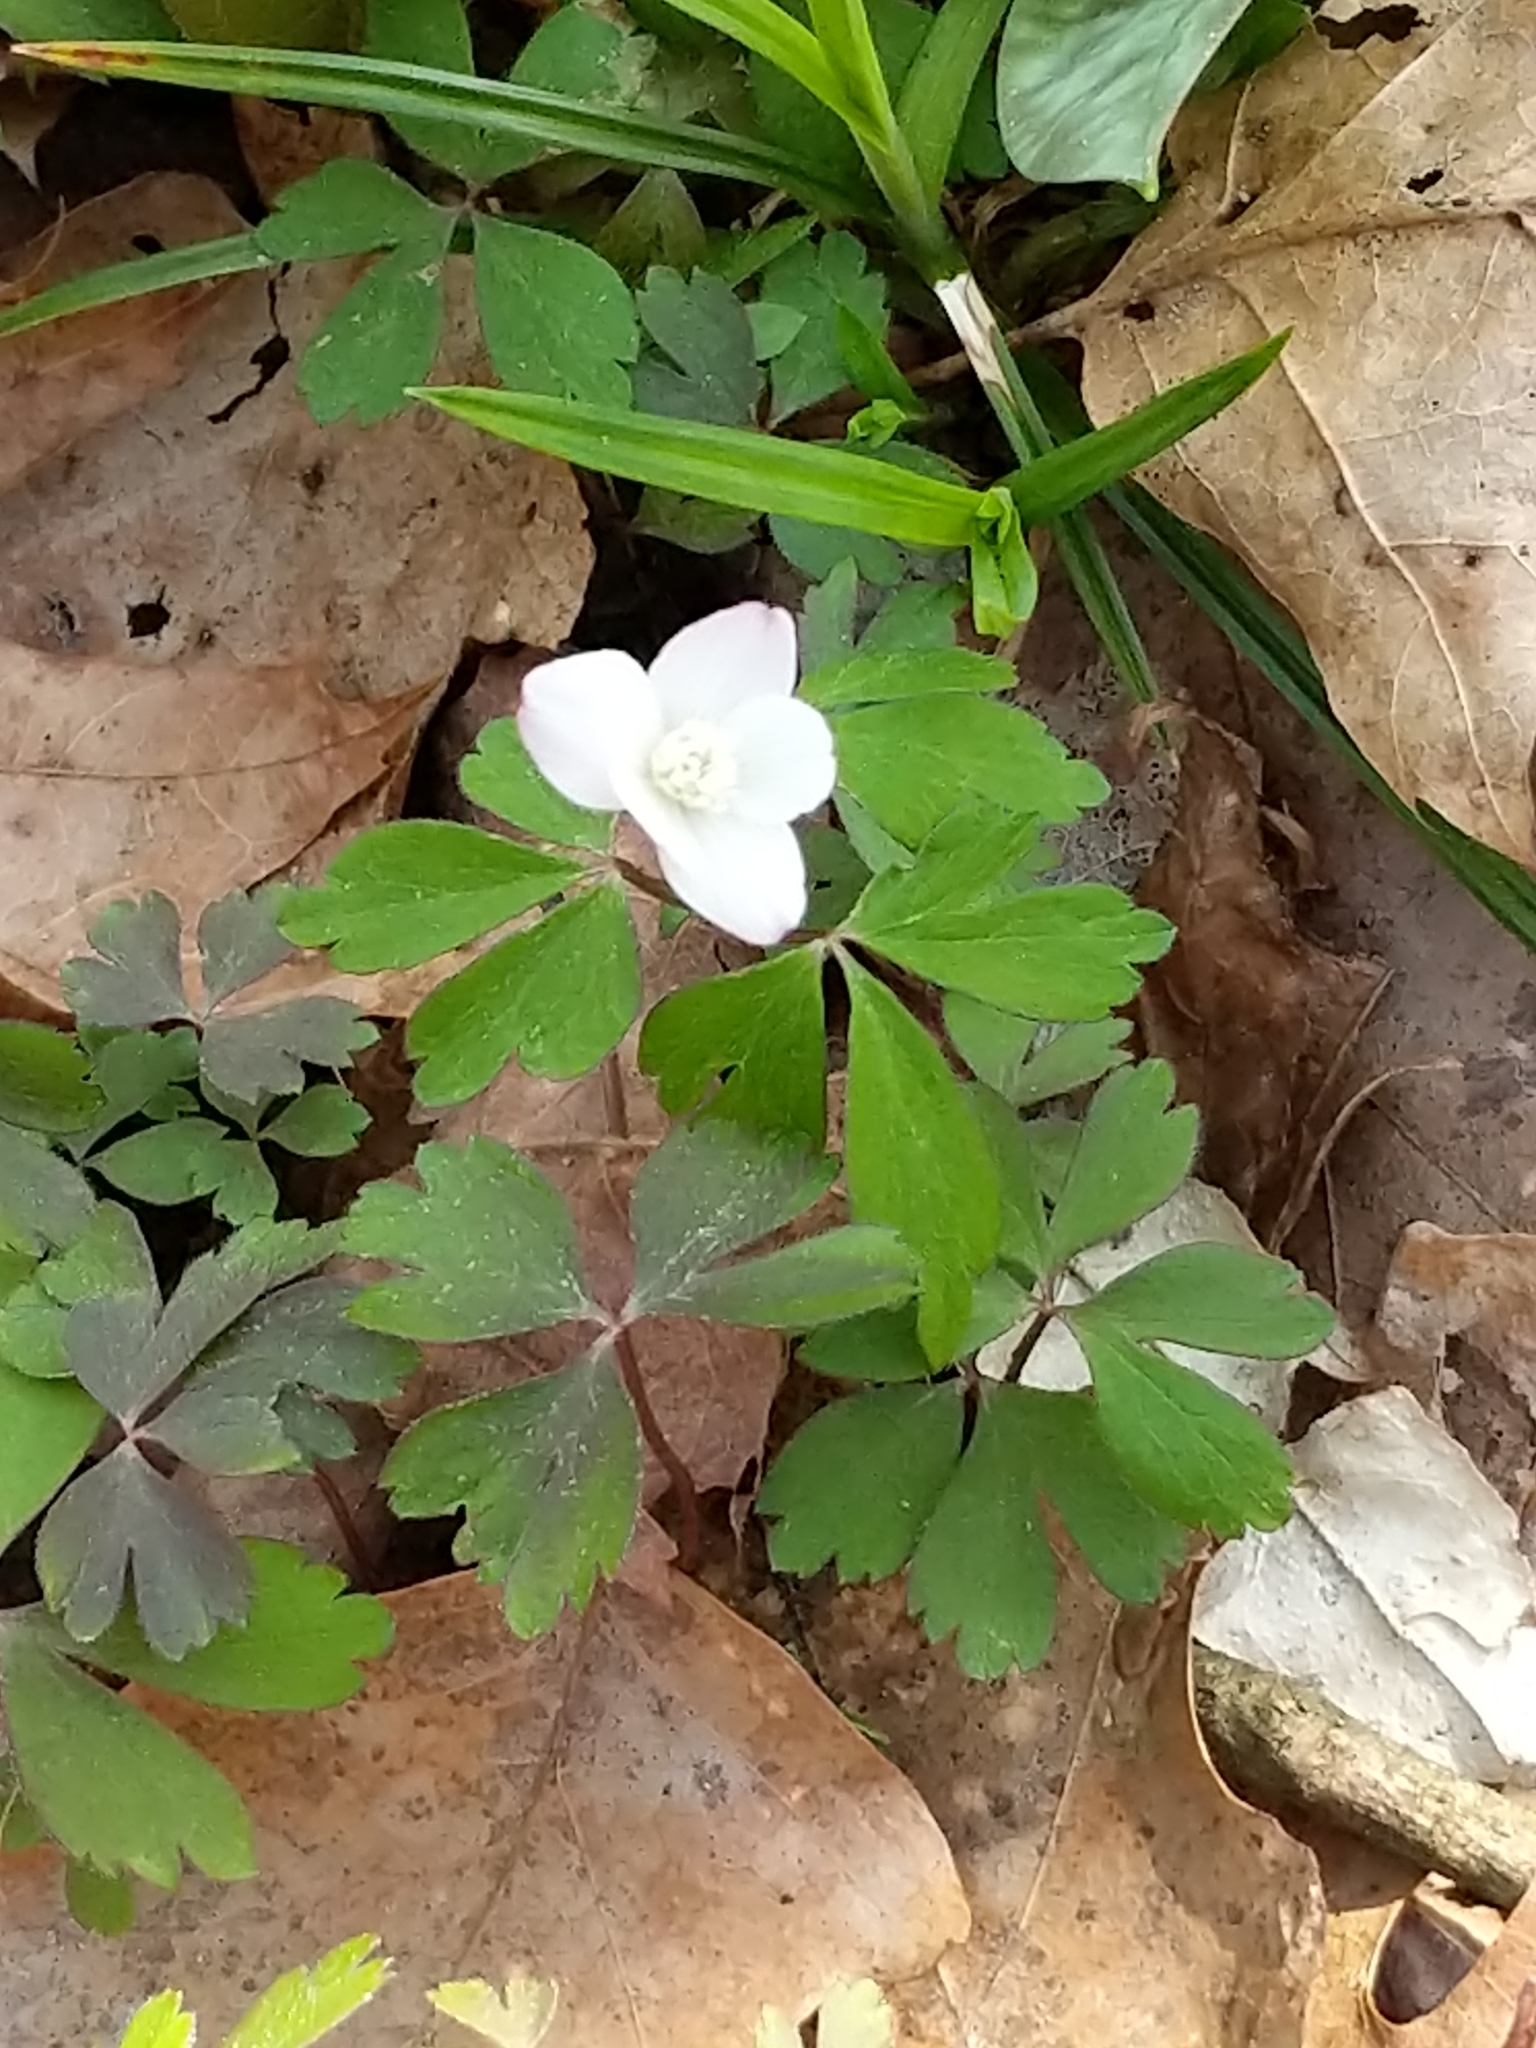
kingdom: Plantae
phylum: Tracheophyta
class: Magnoliopsida
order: Ranunculales
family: Ranunculaceae
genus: Anemone
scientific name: Anemone quinquefolia
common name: Wood anemone
